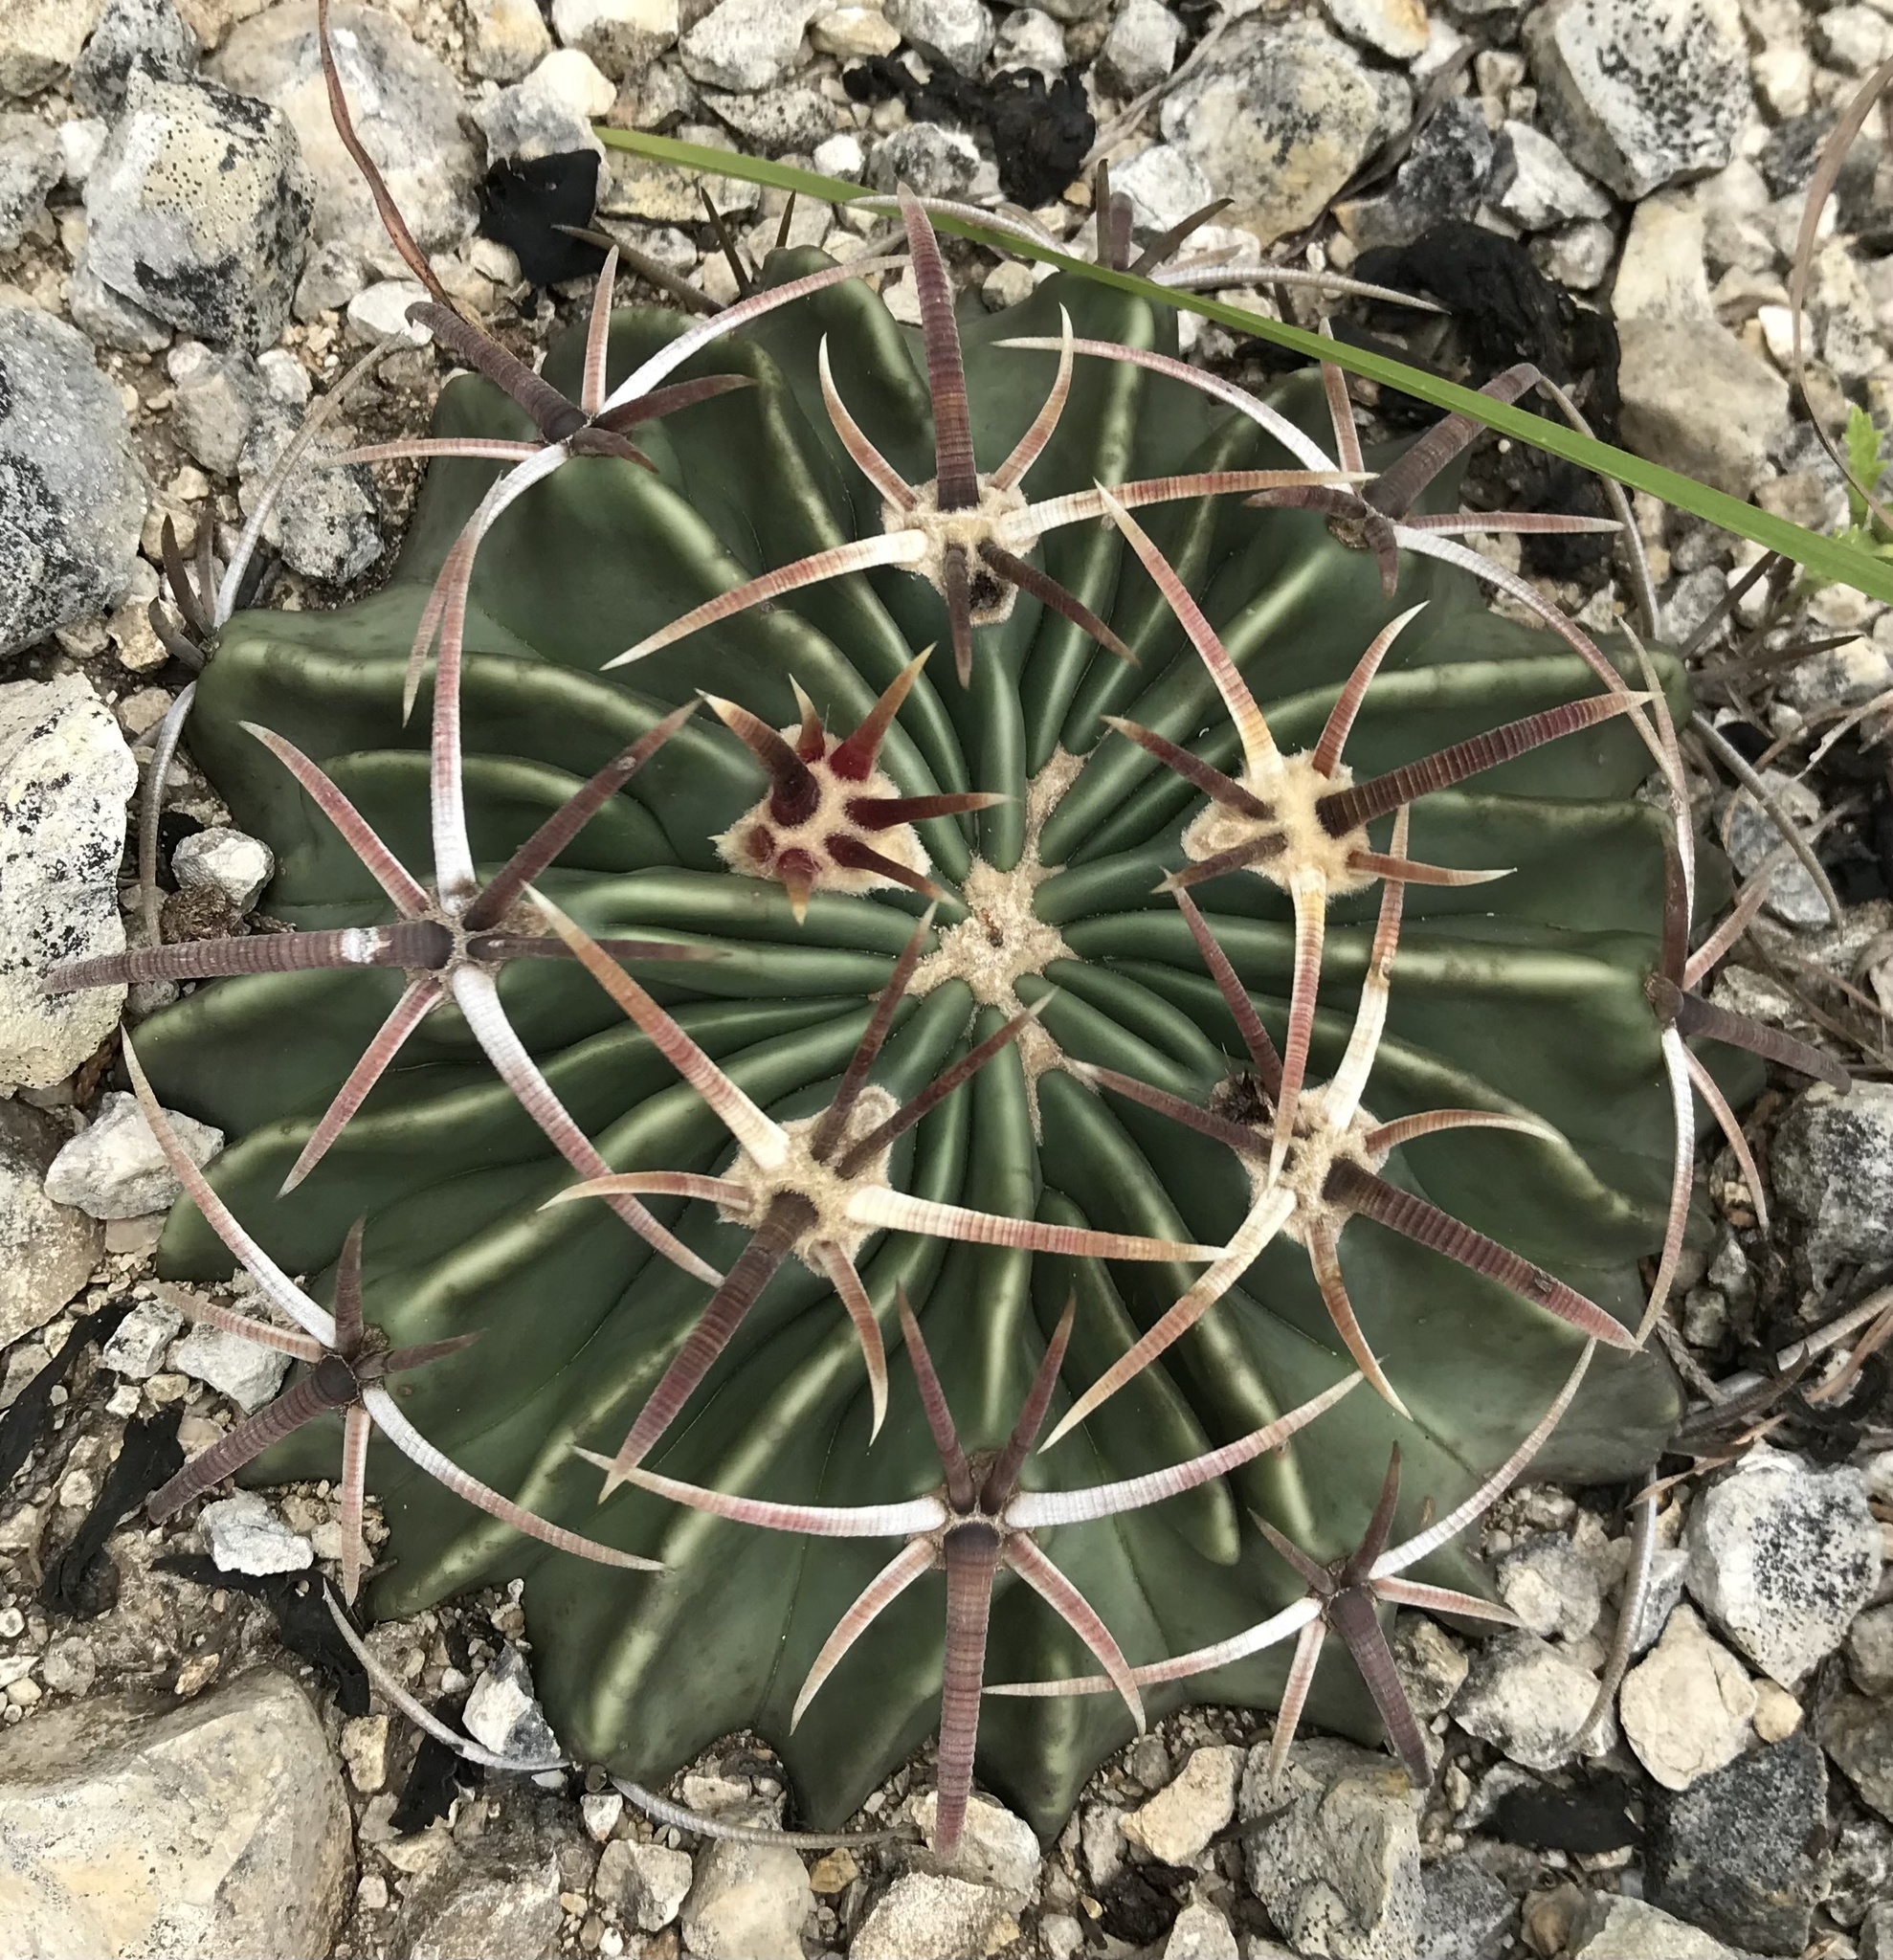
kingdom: Plantae
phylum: Tracheophyta
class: Magnoliopsida
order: Caryophyllales
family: Cactaceae
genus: Echinocactus
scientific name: Echinocactus texensis
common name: Devil's pincushion
